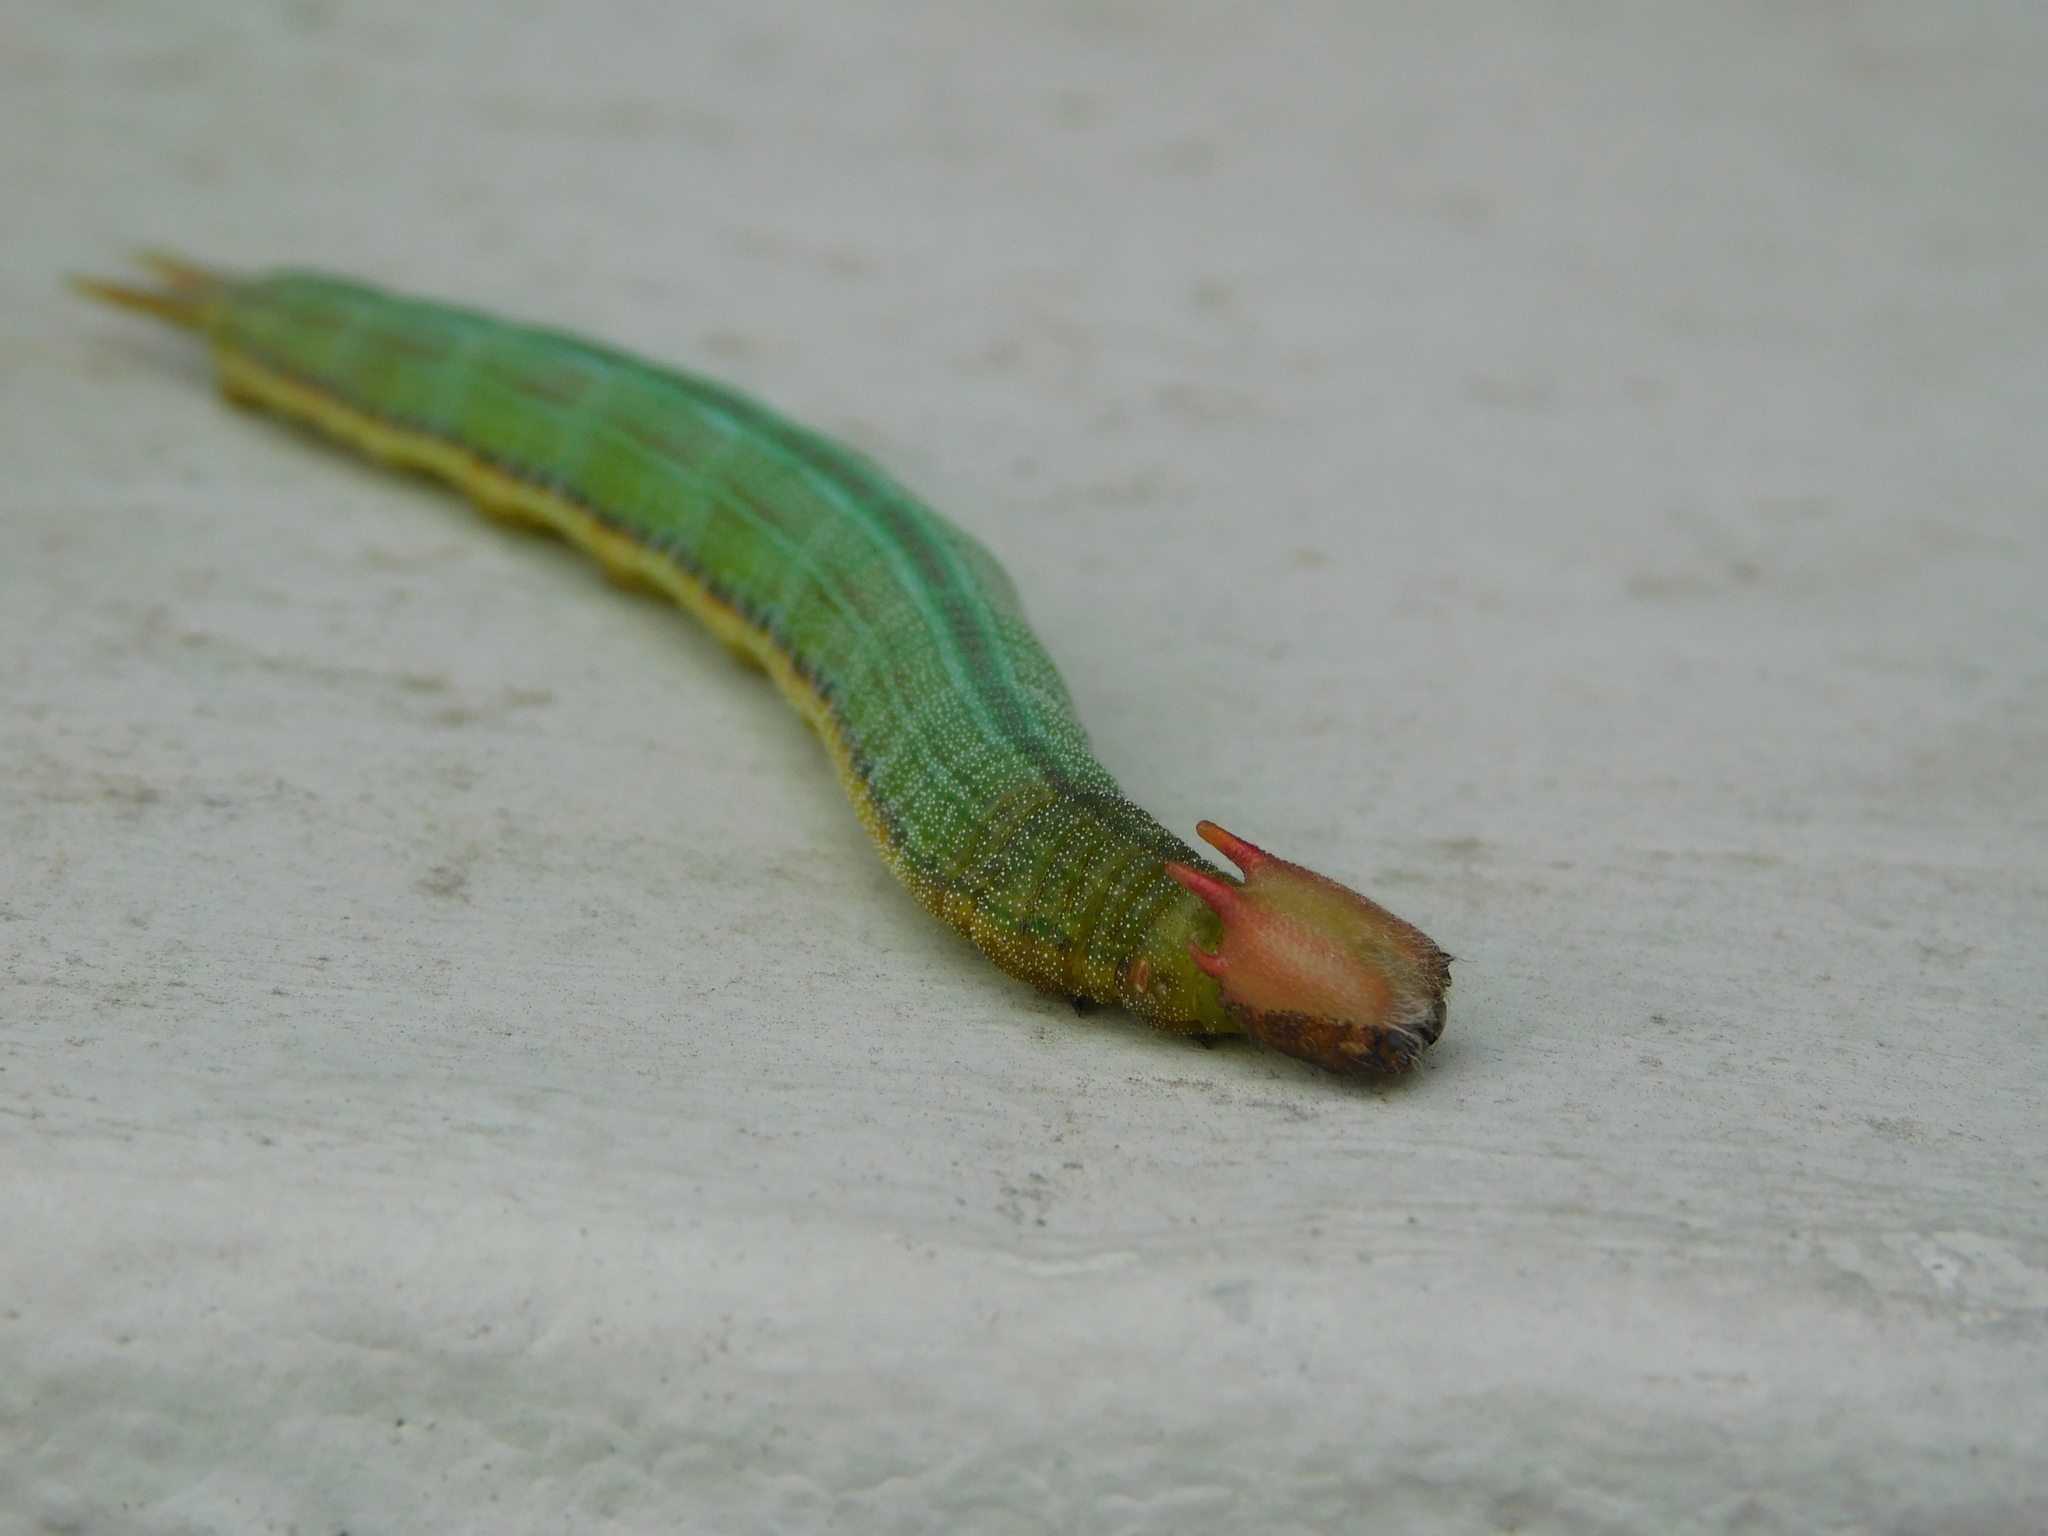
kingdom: Animalia
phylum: Arthropoda
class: Insecta
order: Lepidoptera
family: Nymphalidae
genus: Opsiphanes
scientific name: Opsiphanes invirae
